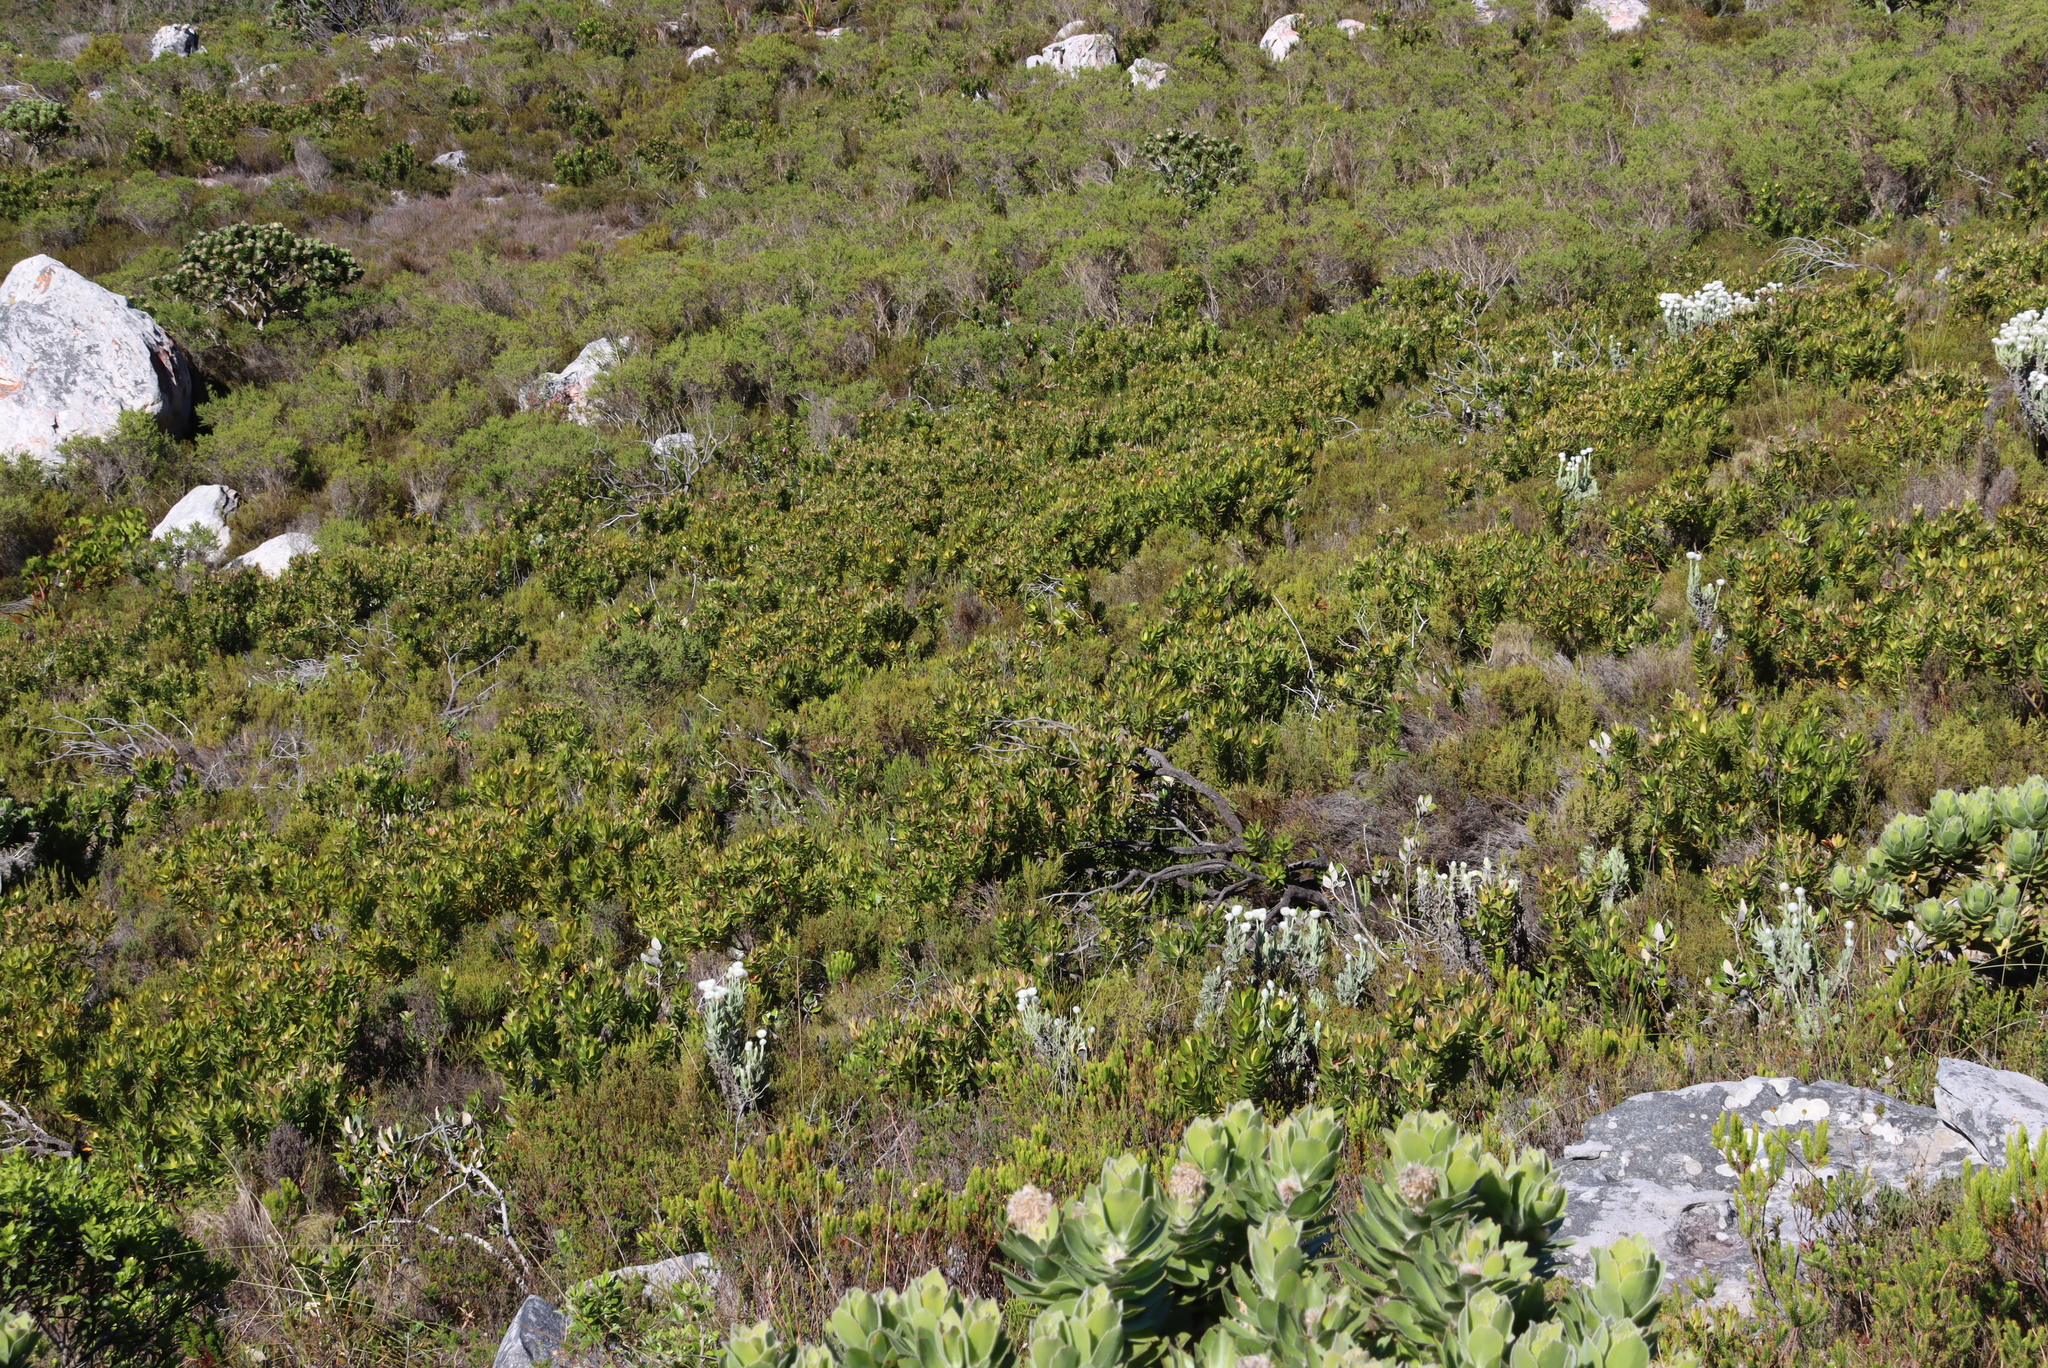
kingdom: Plantae
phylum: Tracheophyta
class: Magnoliopsida
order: Proteales
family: Proteaceae
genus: Leucadendron
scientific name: Leucadendron laureolum
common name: Golden sunshinebush
